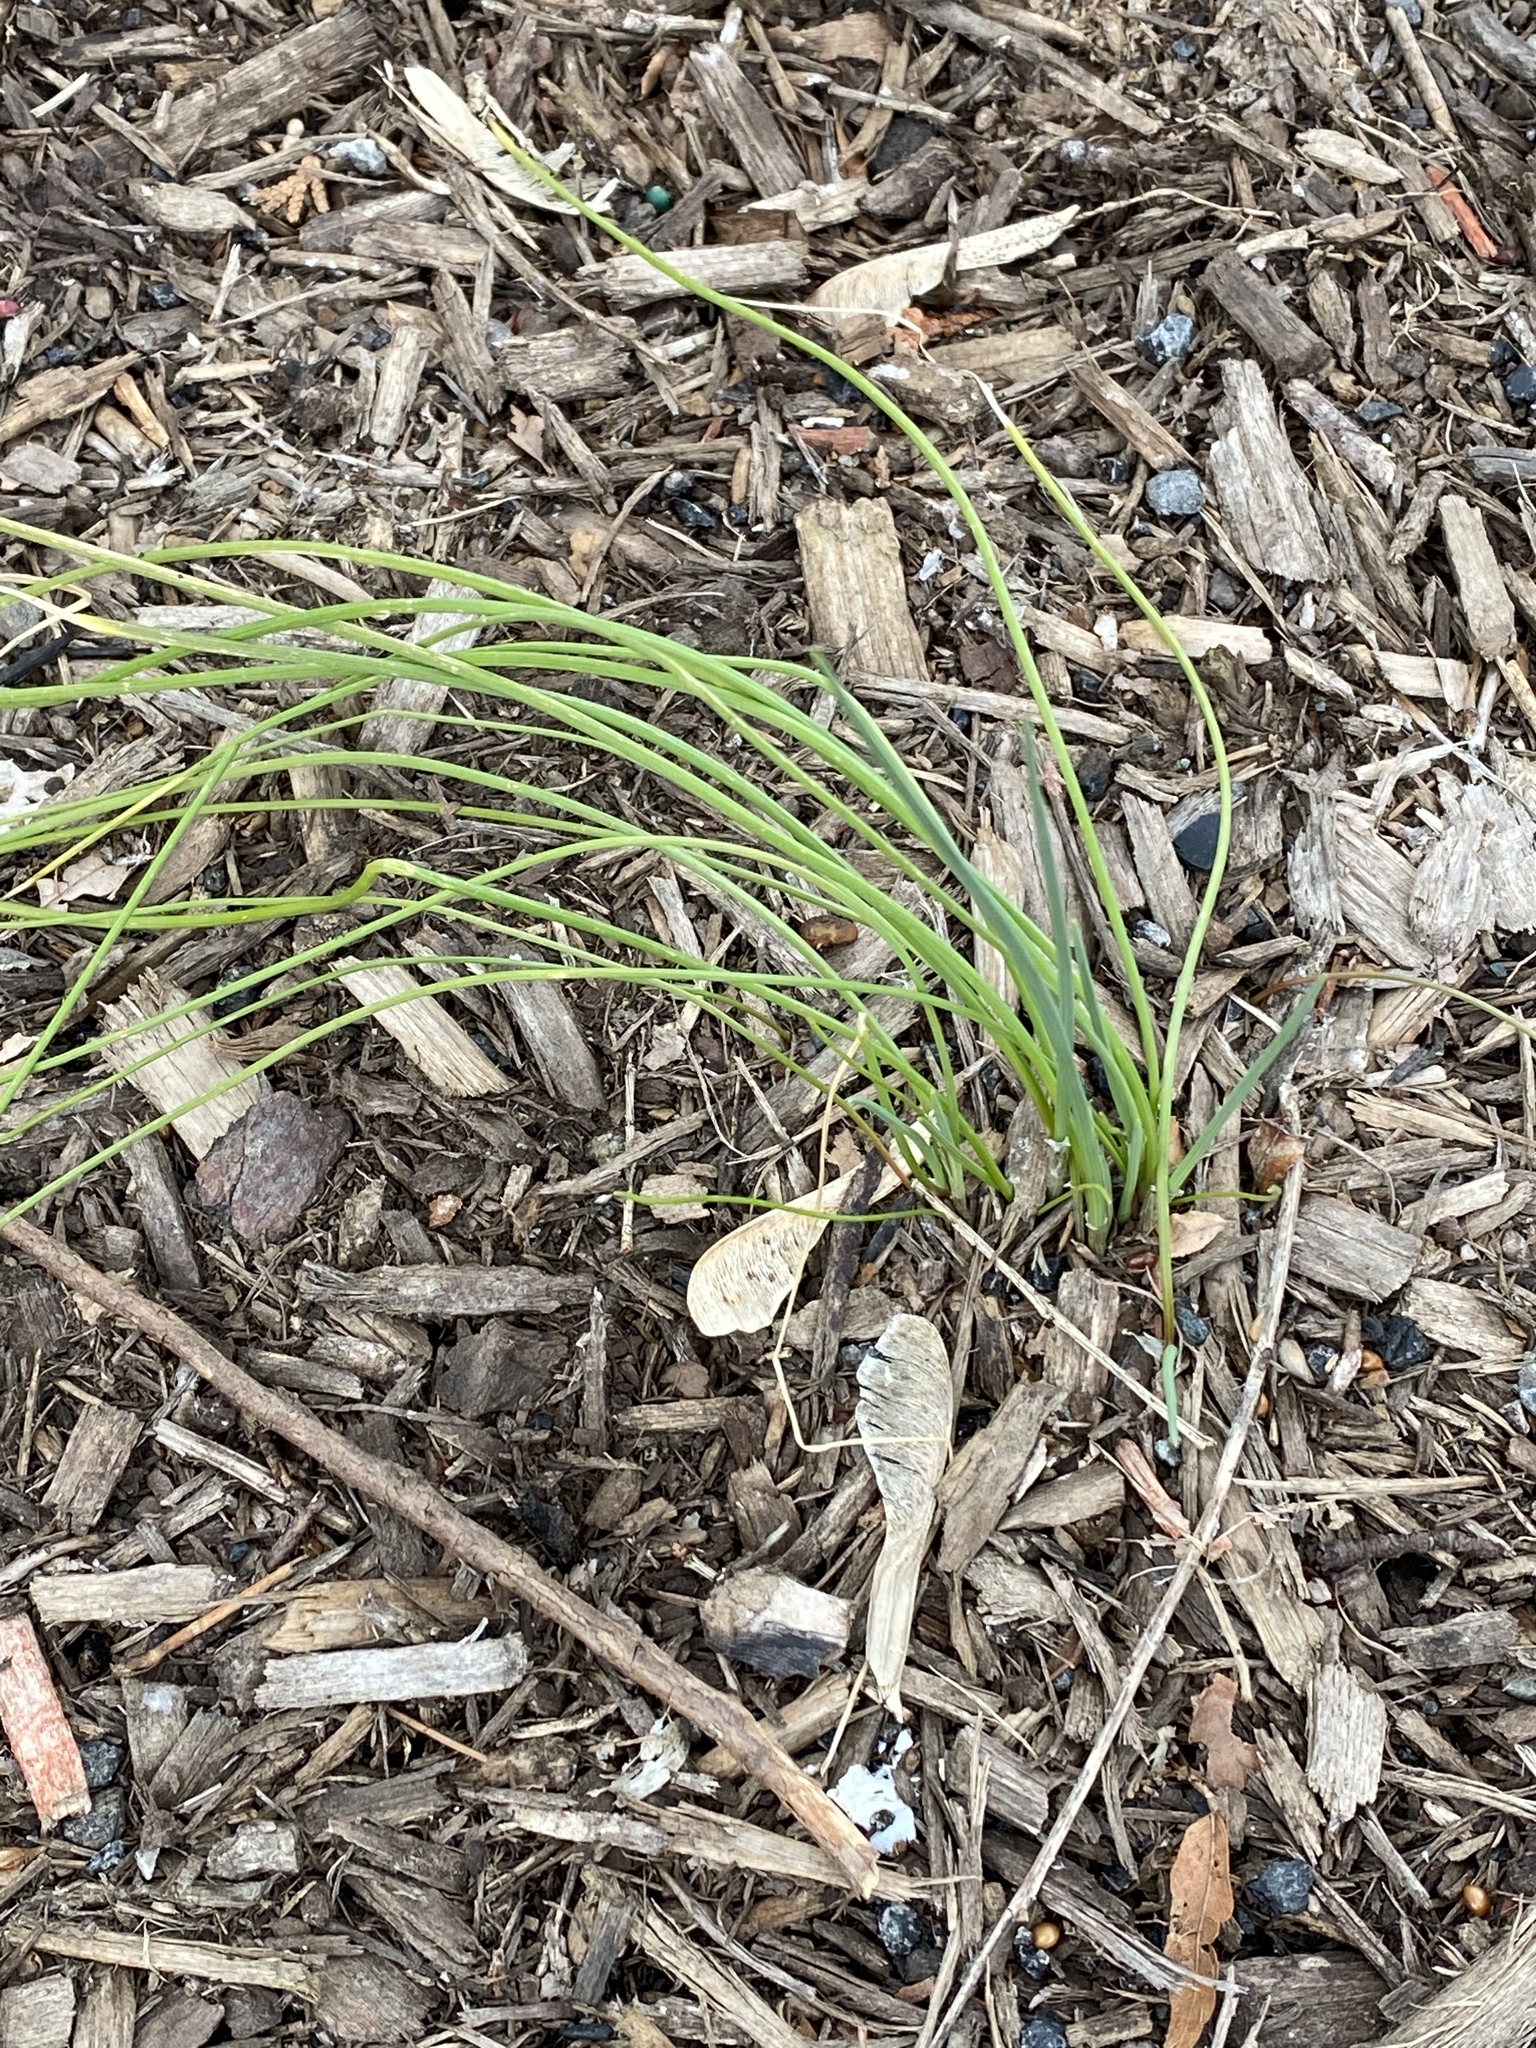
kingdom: Plantae
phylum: Tracheophyta
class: Liliopsida
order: Asparagales
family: Amaryllidaceae
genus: Allium
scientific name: Allium vineale
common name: Crow garlic
